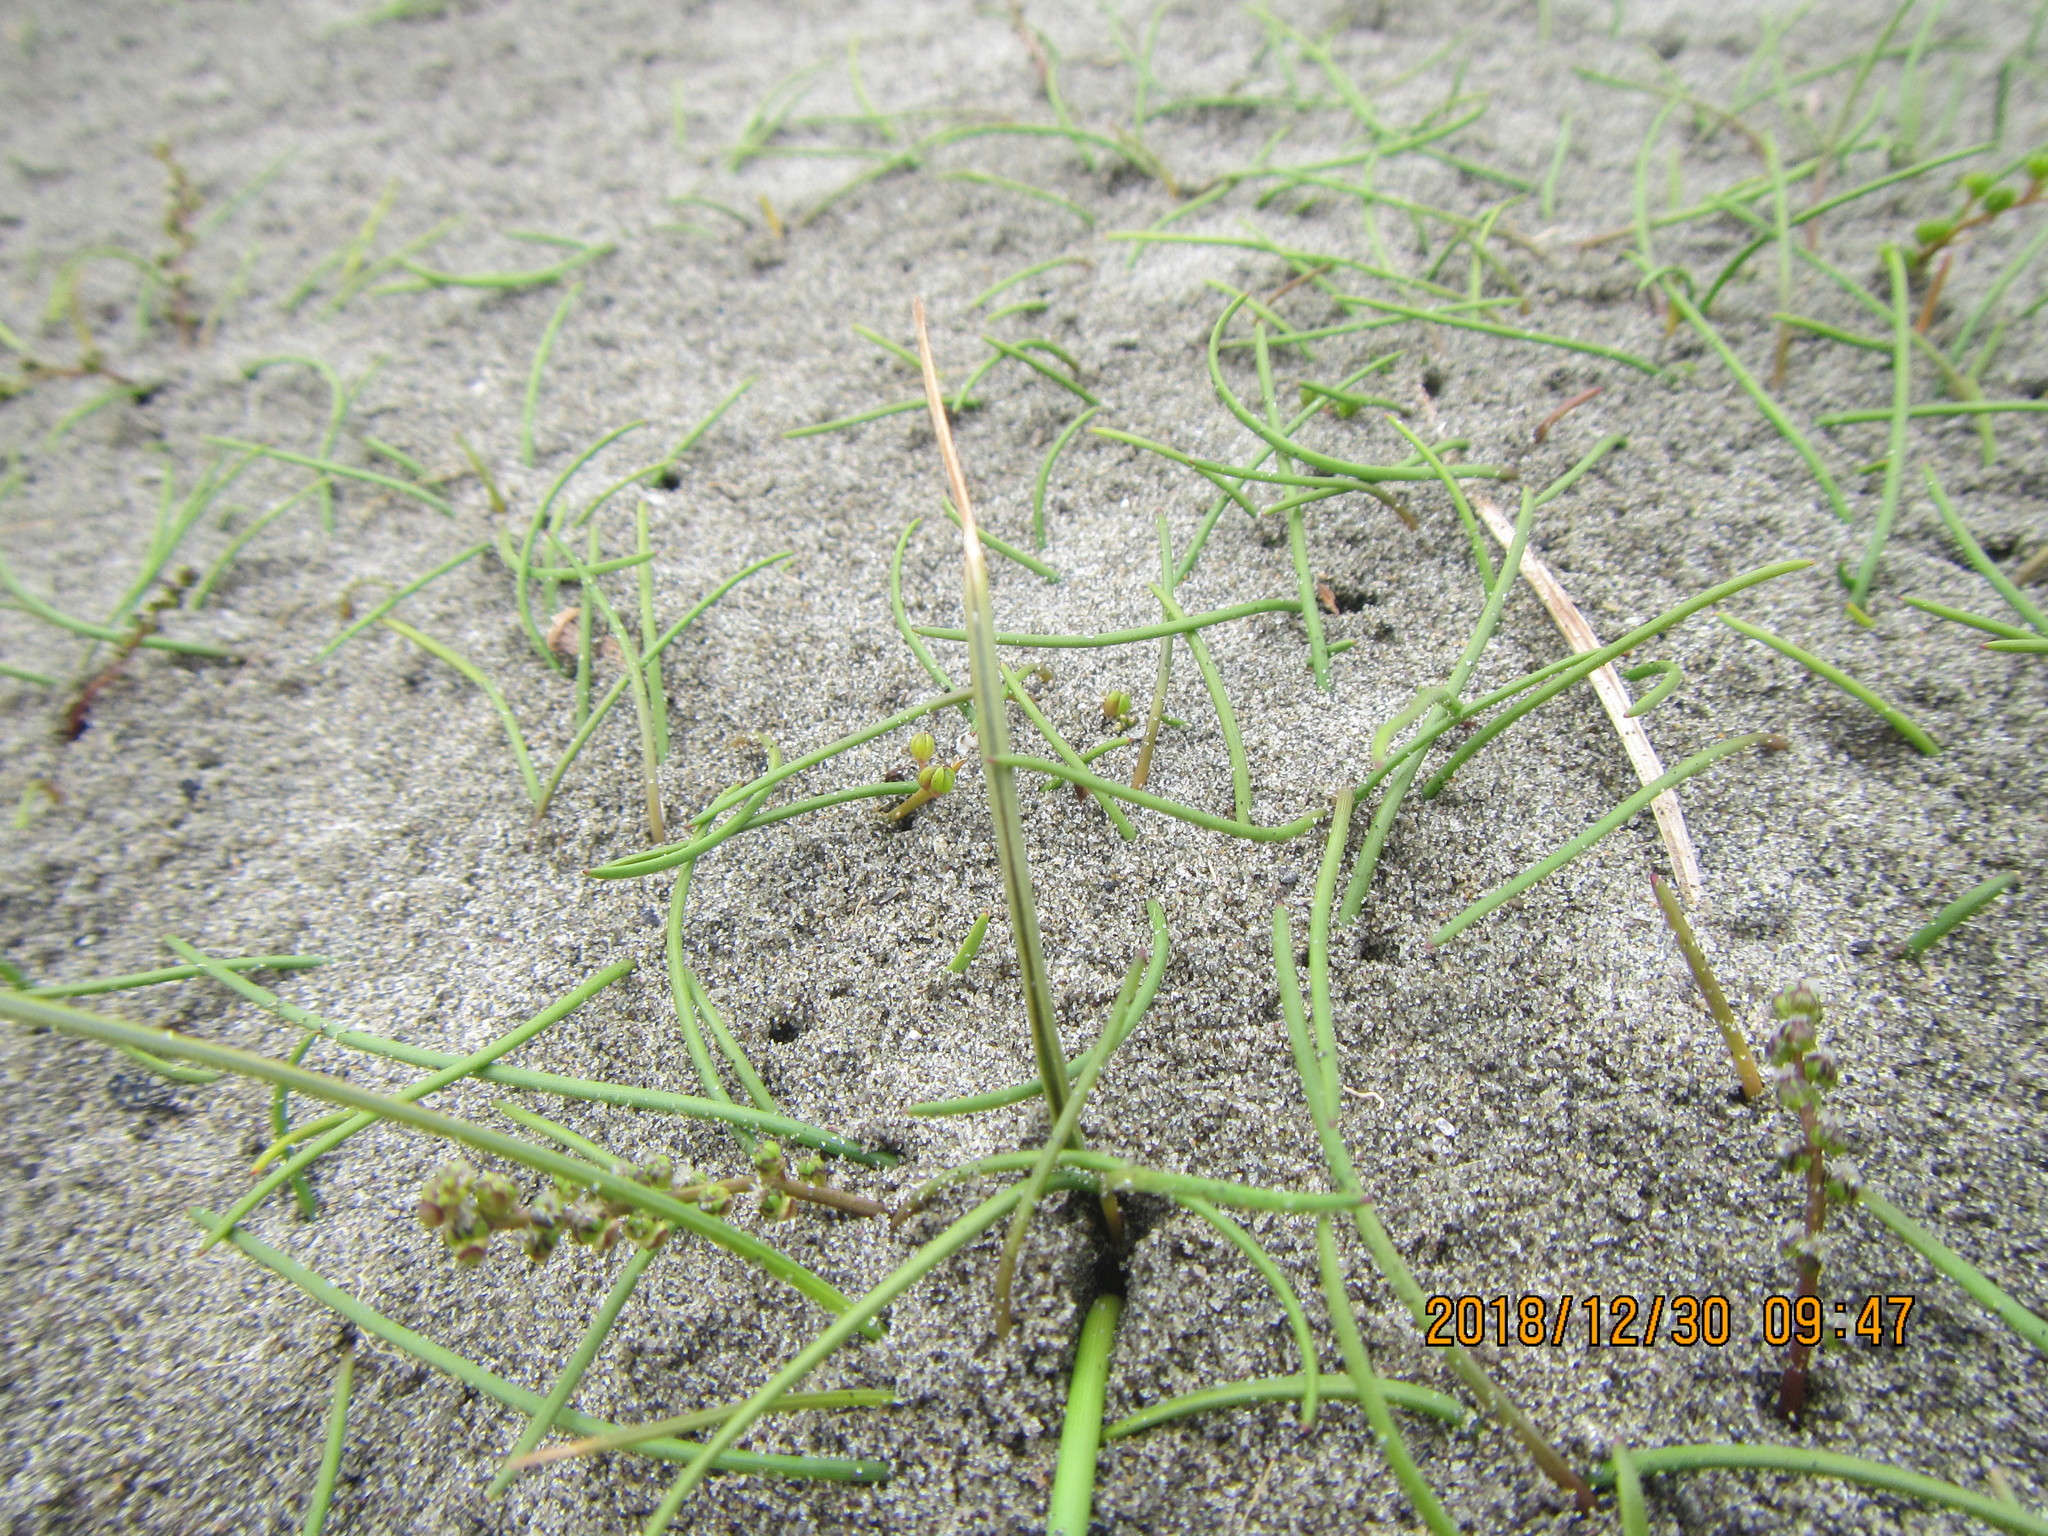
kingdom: Plantae
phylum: Tracheophyta
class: Liliopsida
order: Alismatales
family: Juncaginaceae
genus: Triglochin
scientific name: Triglochin striata
